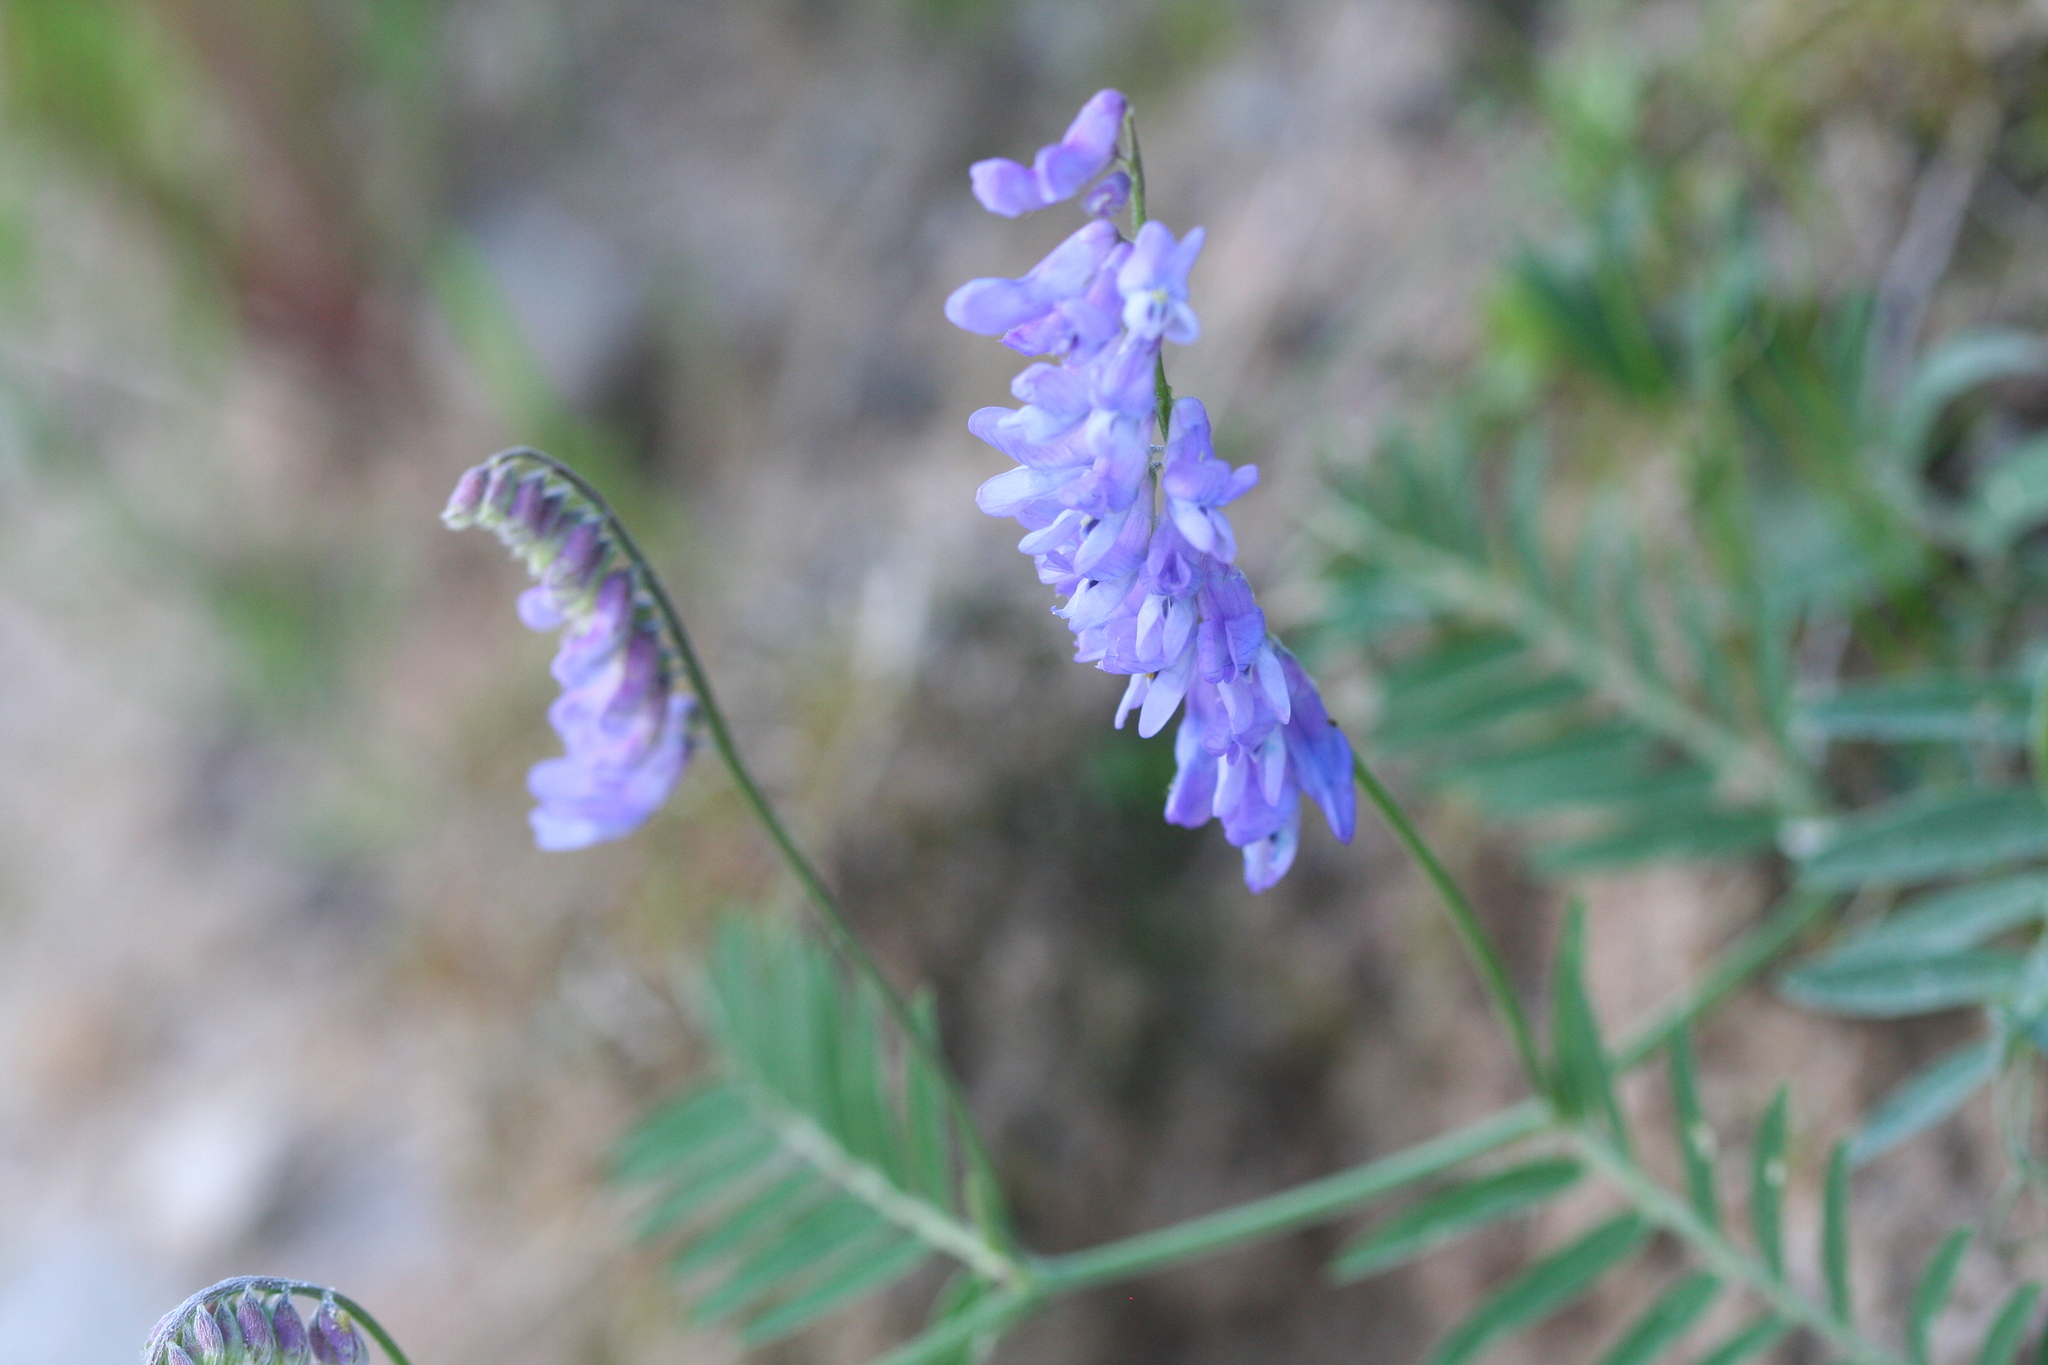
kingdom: Plantae
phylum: Tracheophyta
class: Magnoliopsida
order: Fabales
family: Fabaceae
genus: Vicia
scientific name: Vicia cracca
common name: Bird vetch
